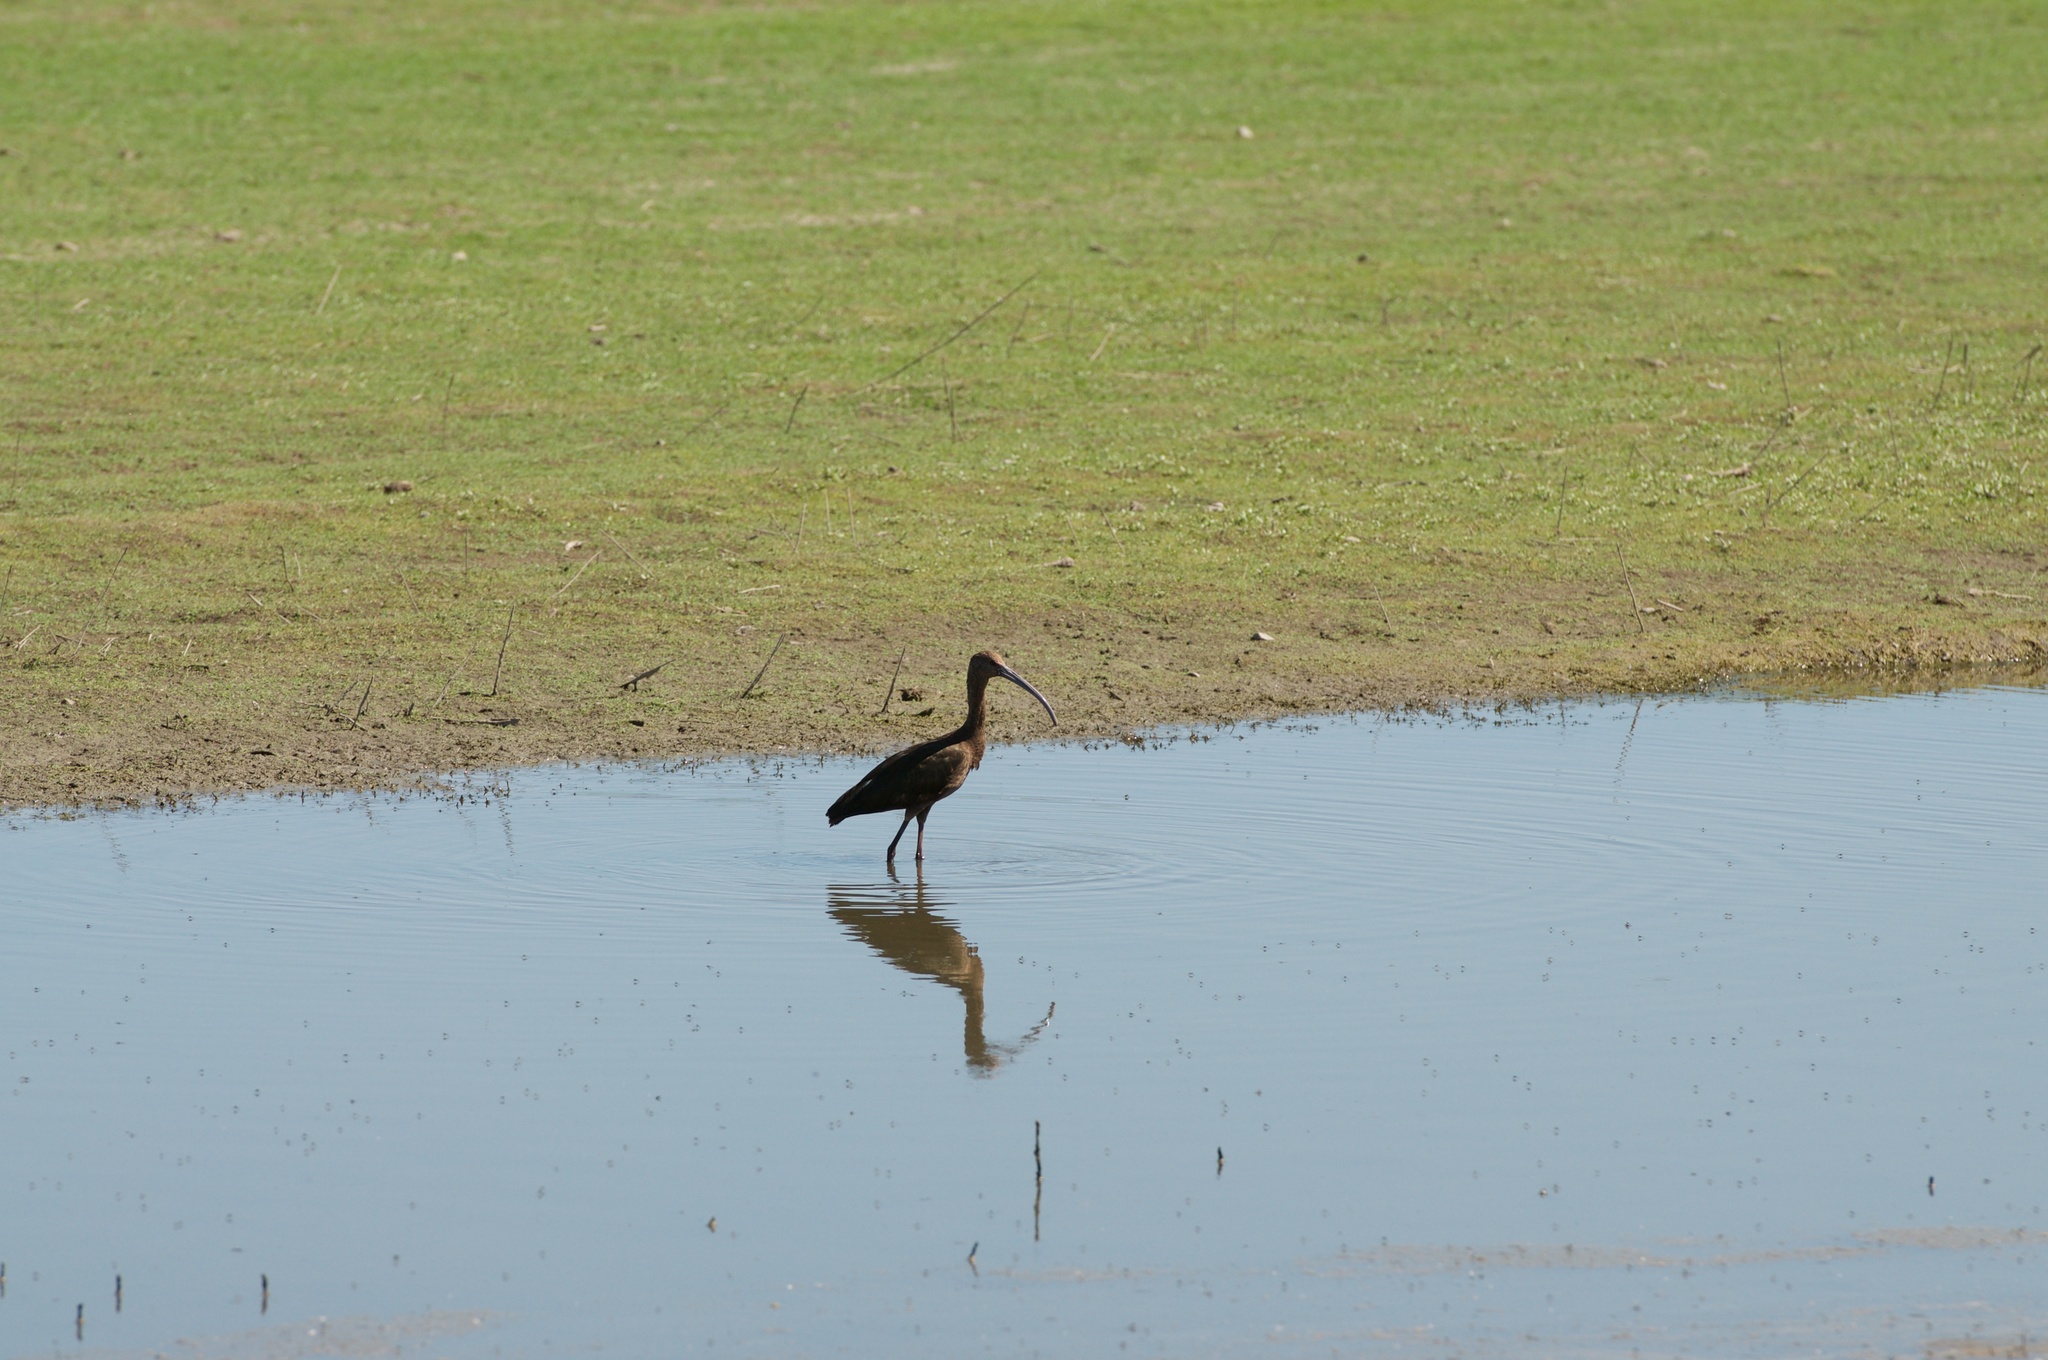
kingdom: Animalia
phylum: Chordata
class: Aves
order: Pelecaniformes
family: Threskiornithidae
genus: Plegadis
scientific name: Plegadis chihi
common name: White-faced ibis
